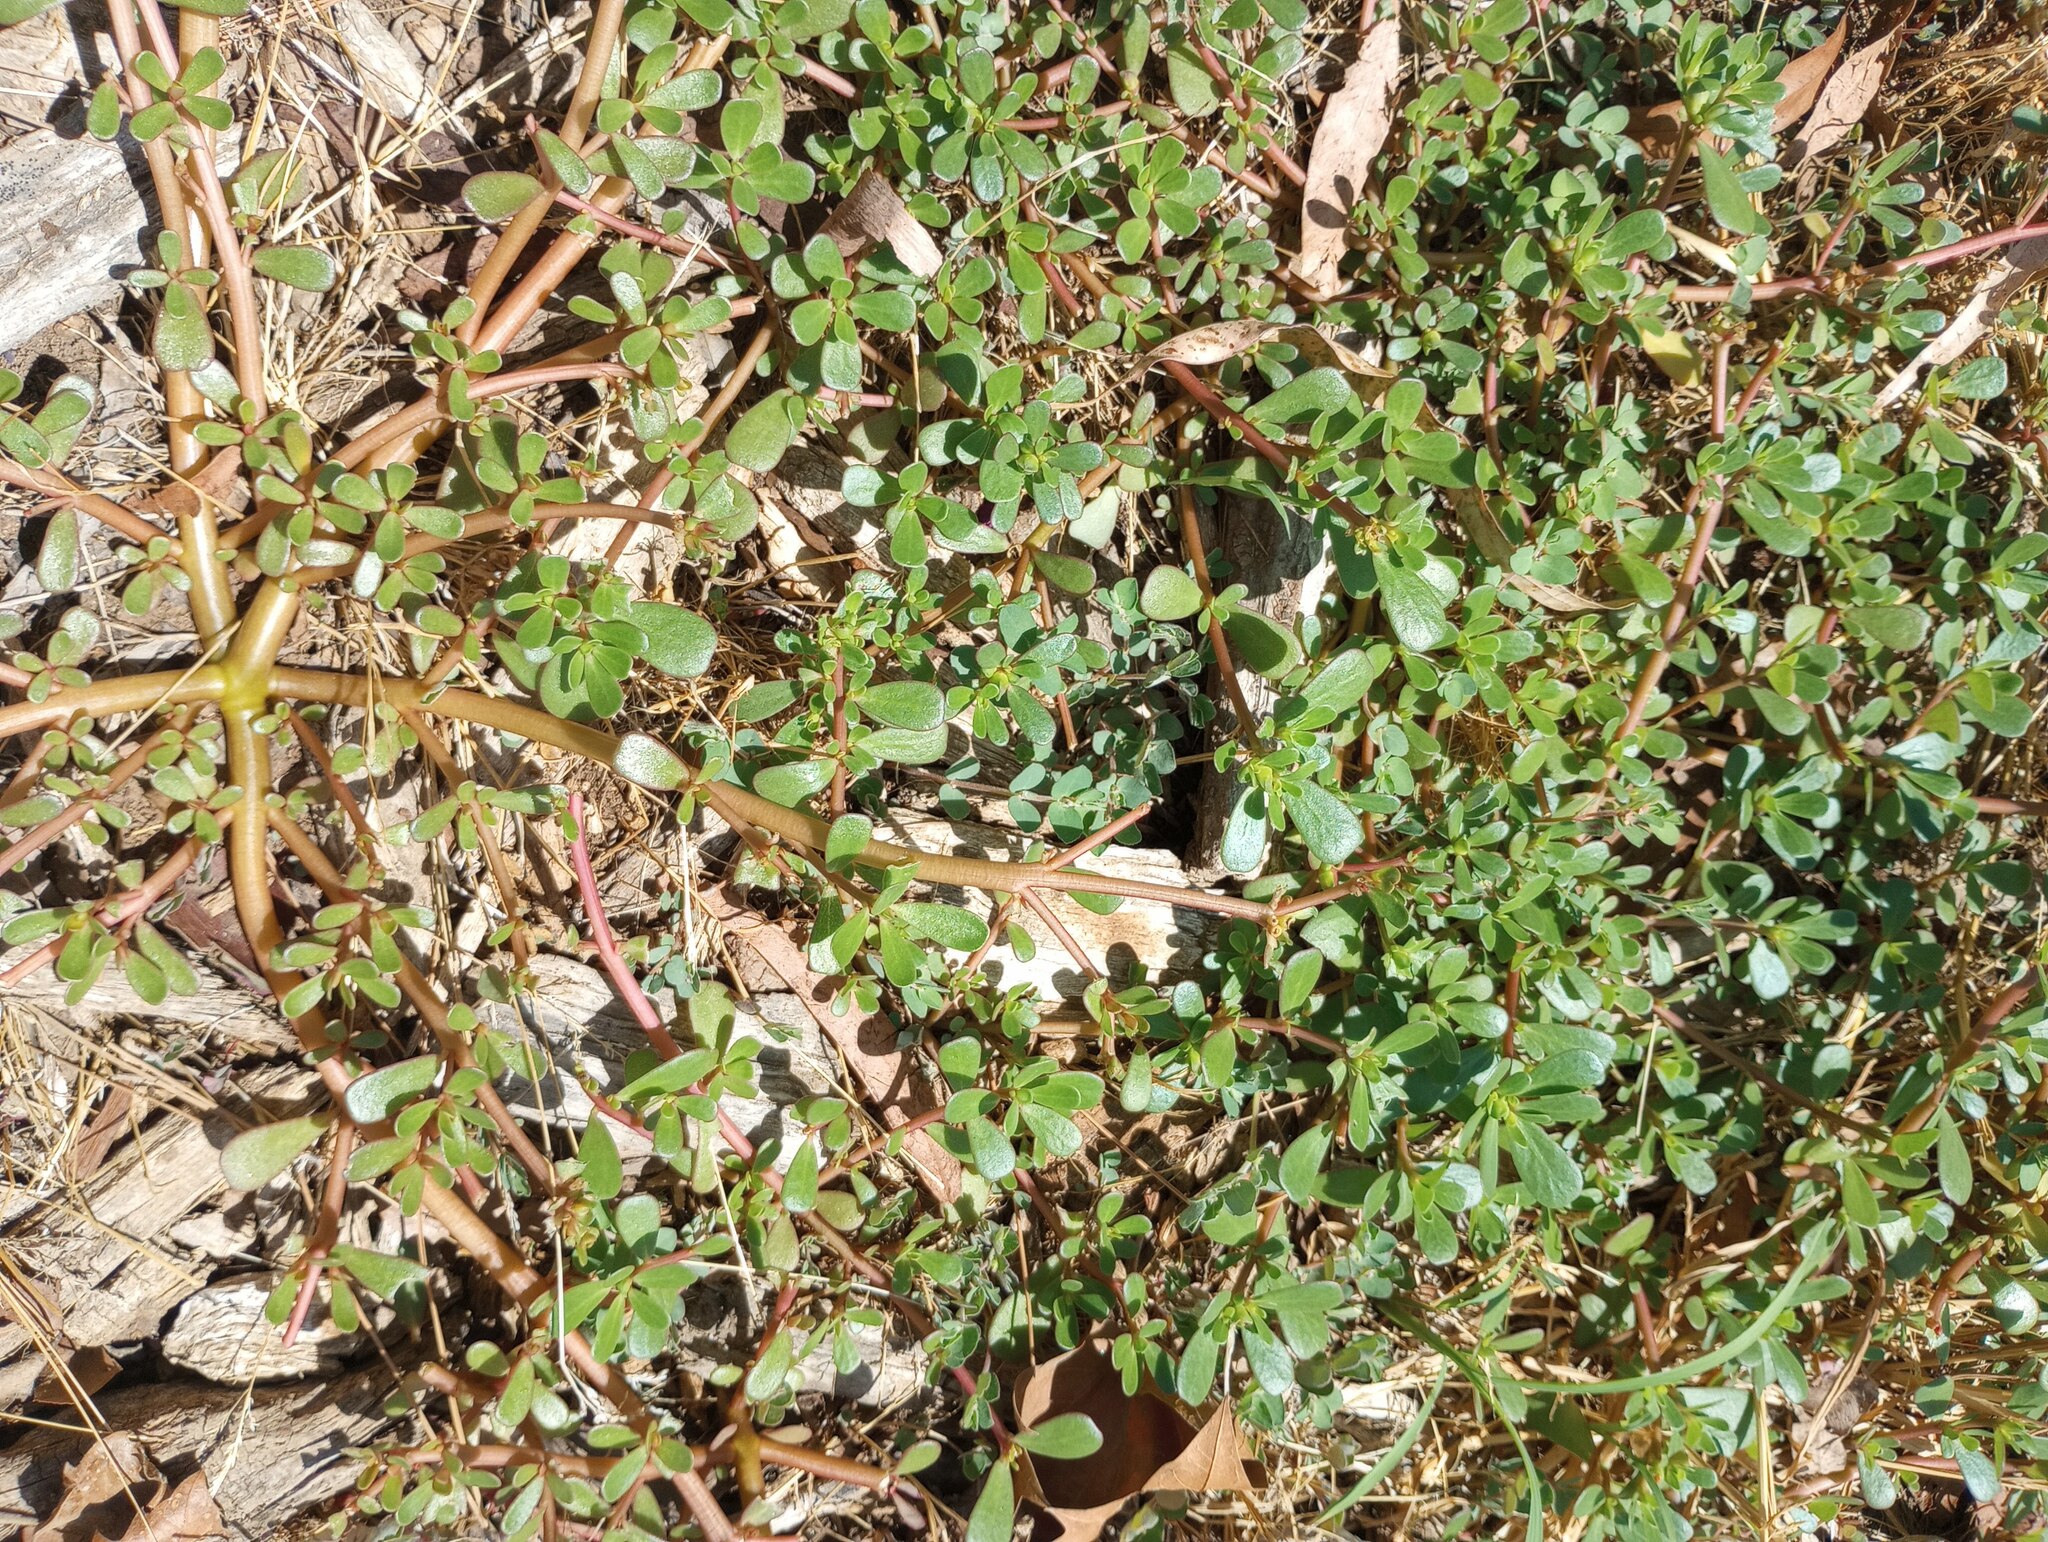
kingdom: Plantae
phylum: Tracheophyta
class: Magnoliopsida
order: Caryophyllales
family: Portulacaceae
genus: Portulaca
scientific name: Portulaca oleracea
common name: Common purslane
